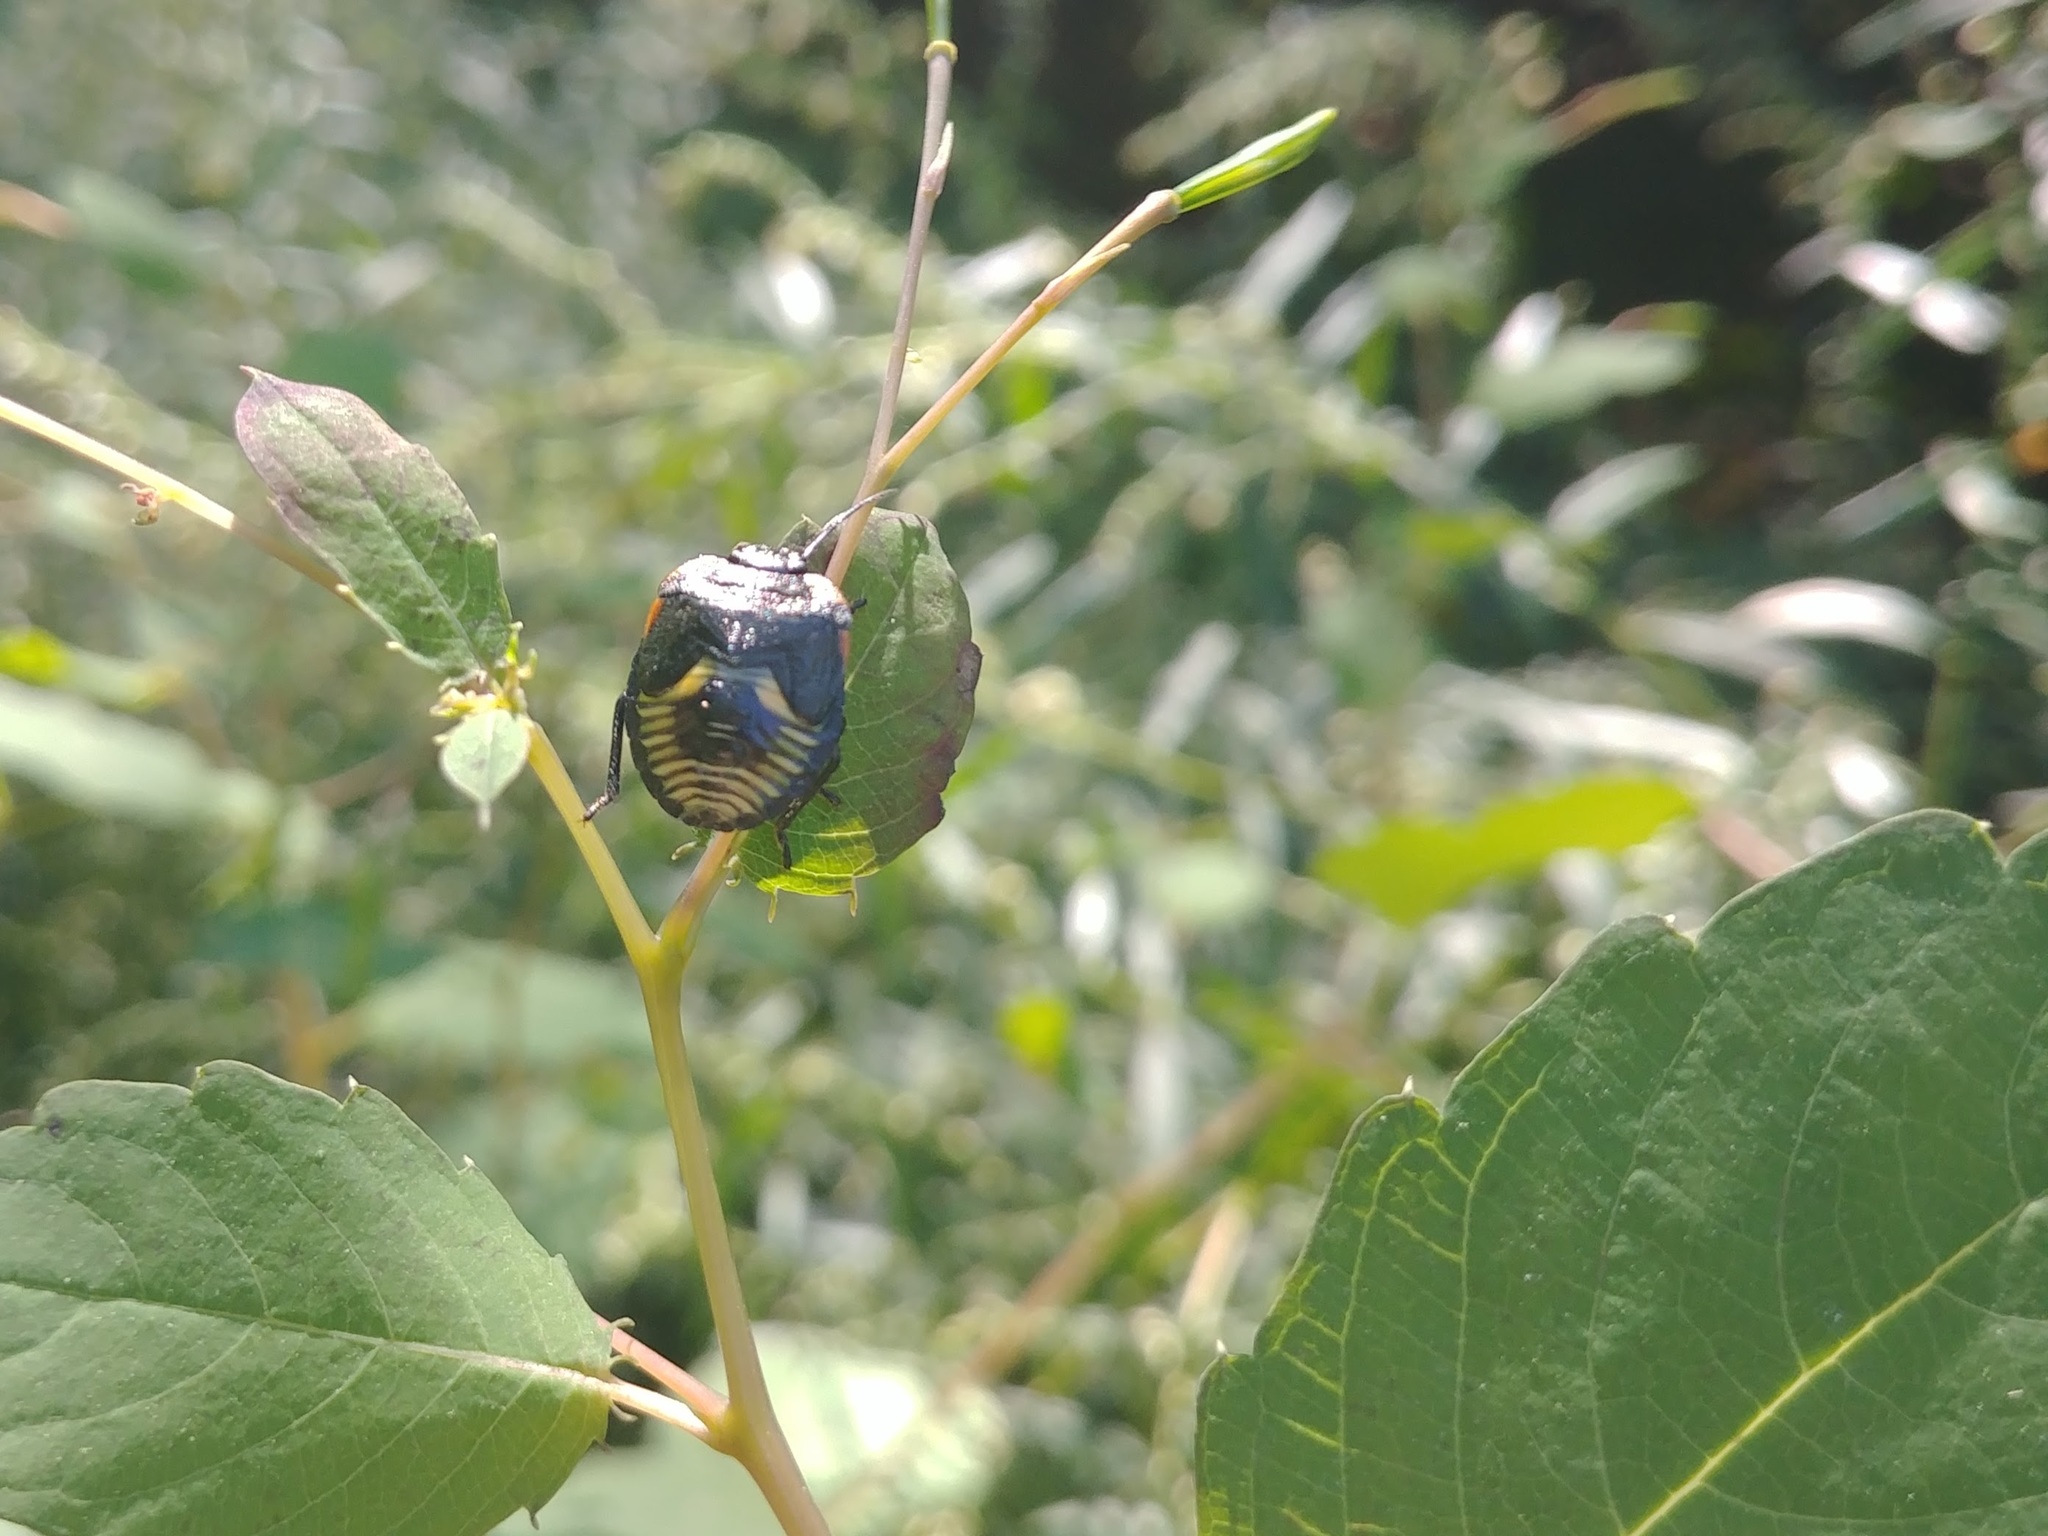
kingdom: Animalia
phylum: Arthropoda
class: Insecta
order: Hemiptera
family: Pentatomidae
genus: Chinavia
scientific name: Chinavia hilaris
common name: Green stink bug
